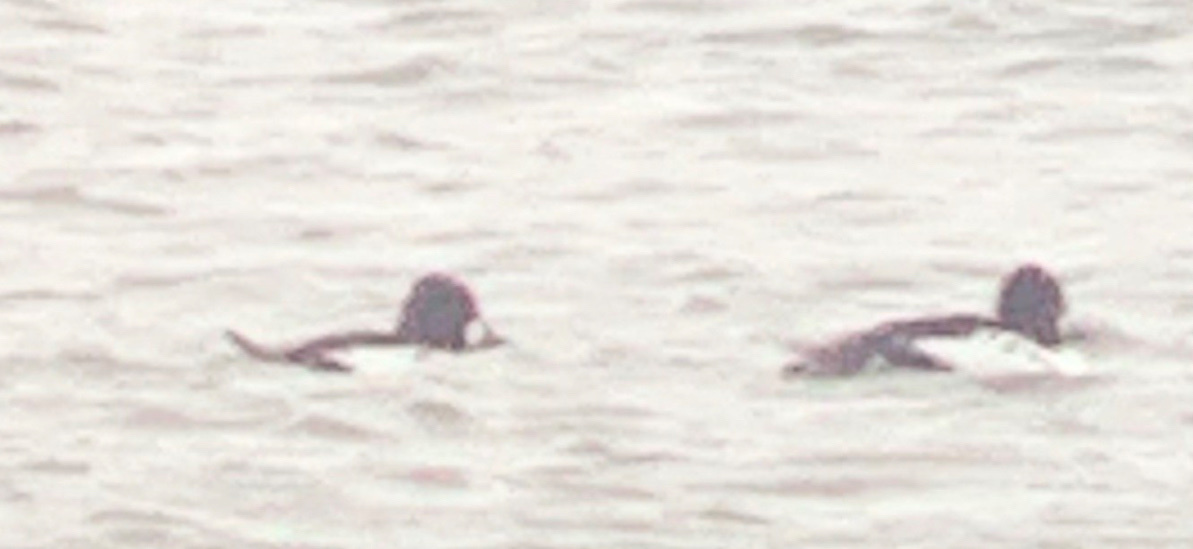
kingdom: Animalia
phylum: Chordata
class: Aves
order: Anseriformes
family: Anatidae
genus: Bucephala
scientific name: Bucephala clangula
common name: Common goldeneye
